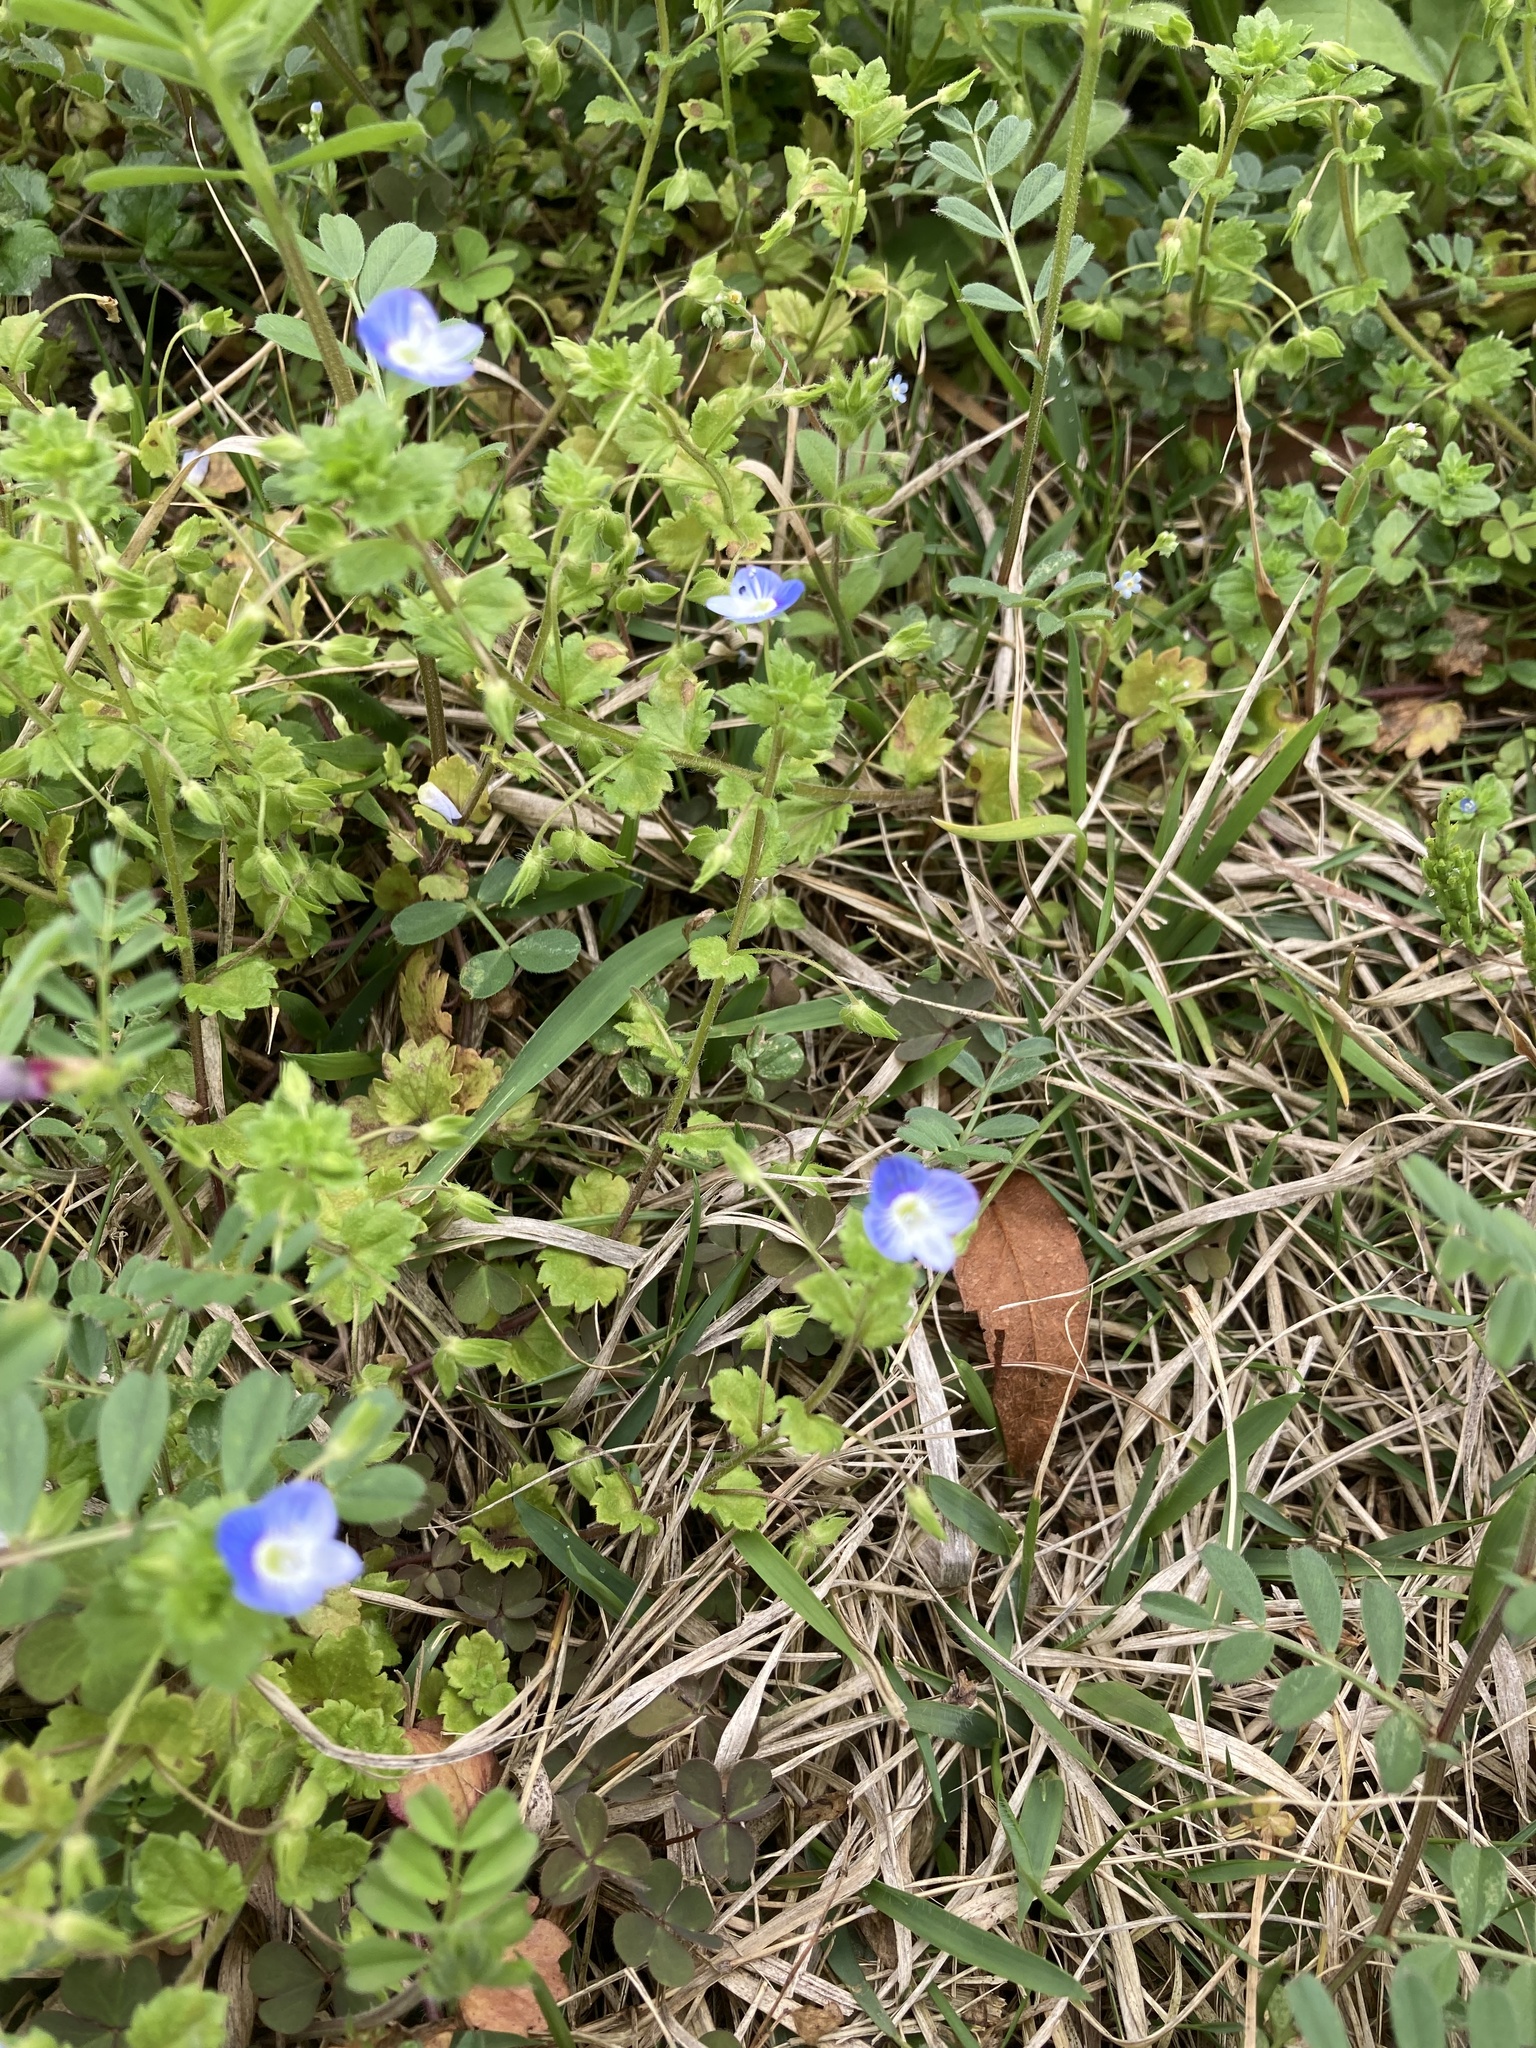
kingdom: Plantae
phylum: Tracheophyta
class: Magnoliopsida
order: Lamiales
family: Plantaginaceae
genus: Veronica
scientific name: Veronica persica
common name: Common field-speedwell
